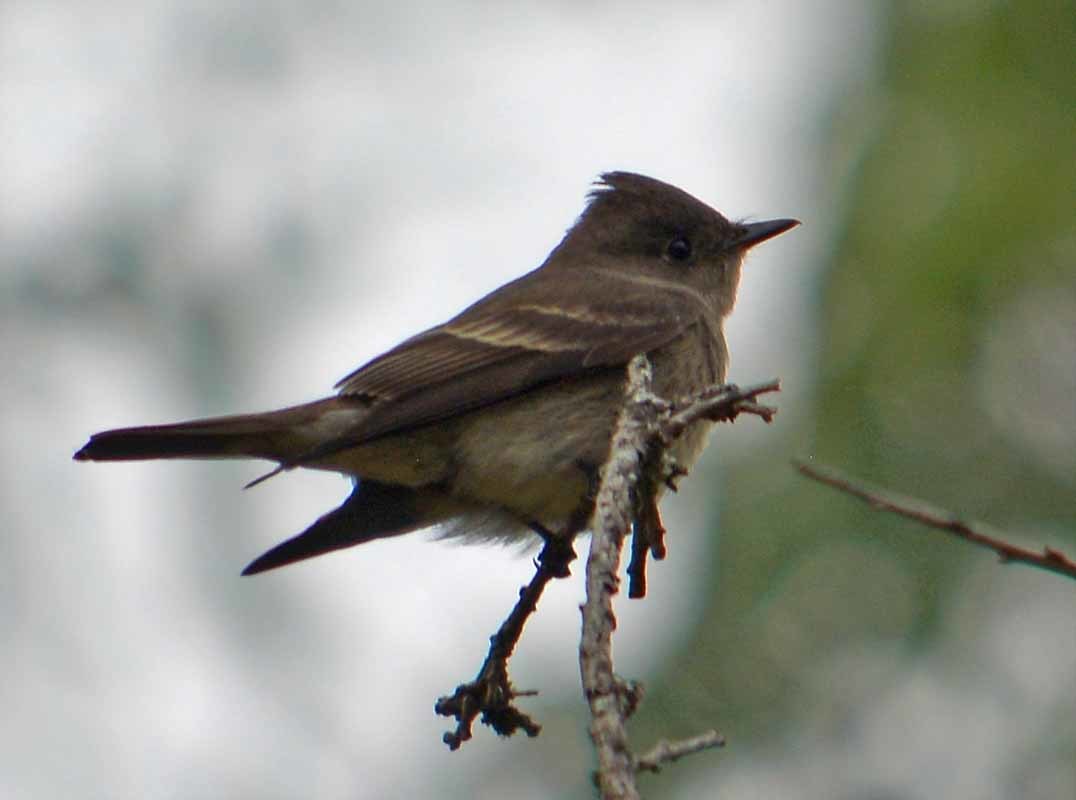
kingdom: Animalia
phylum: Chordata
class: Aves
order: Passeriformes
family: Tyrannidae
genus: Contopus
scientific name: Contopus sordidulus
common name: Western wood-pewee
